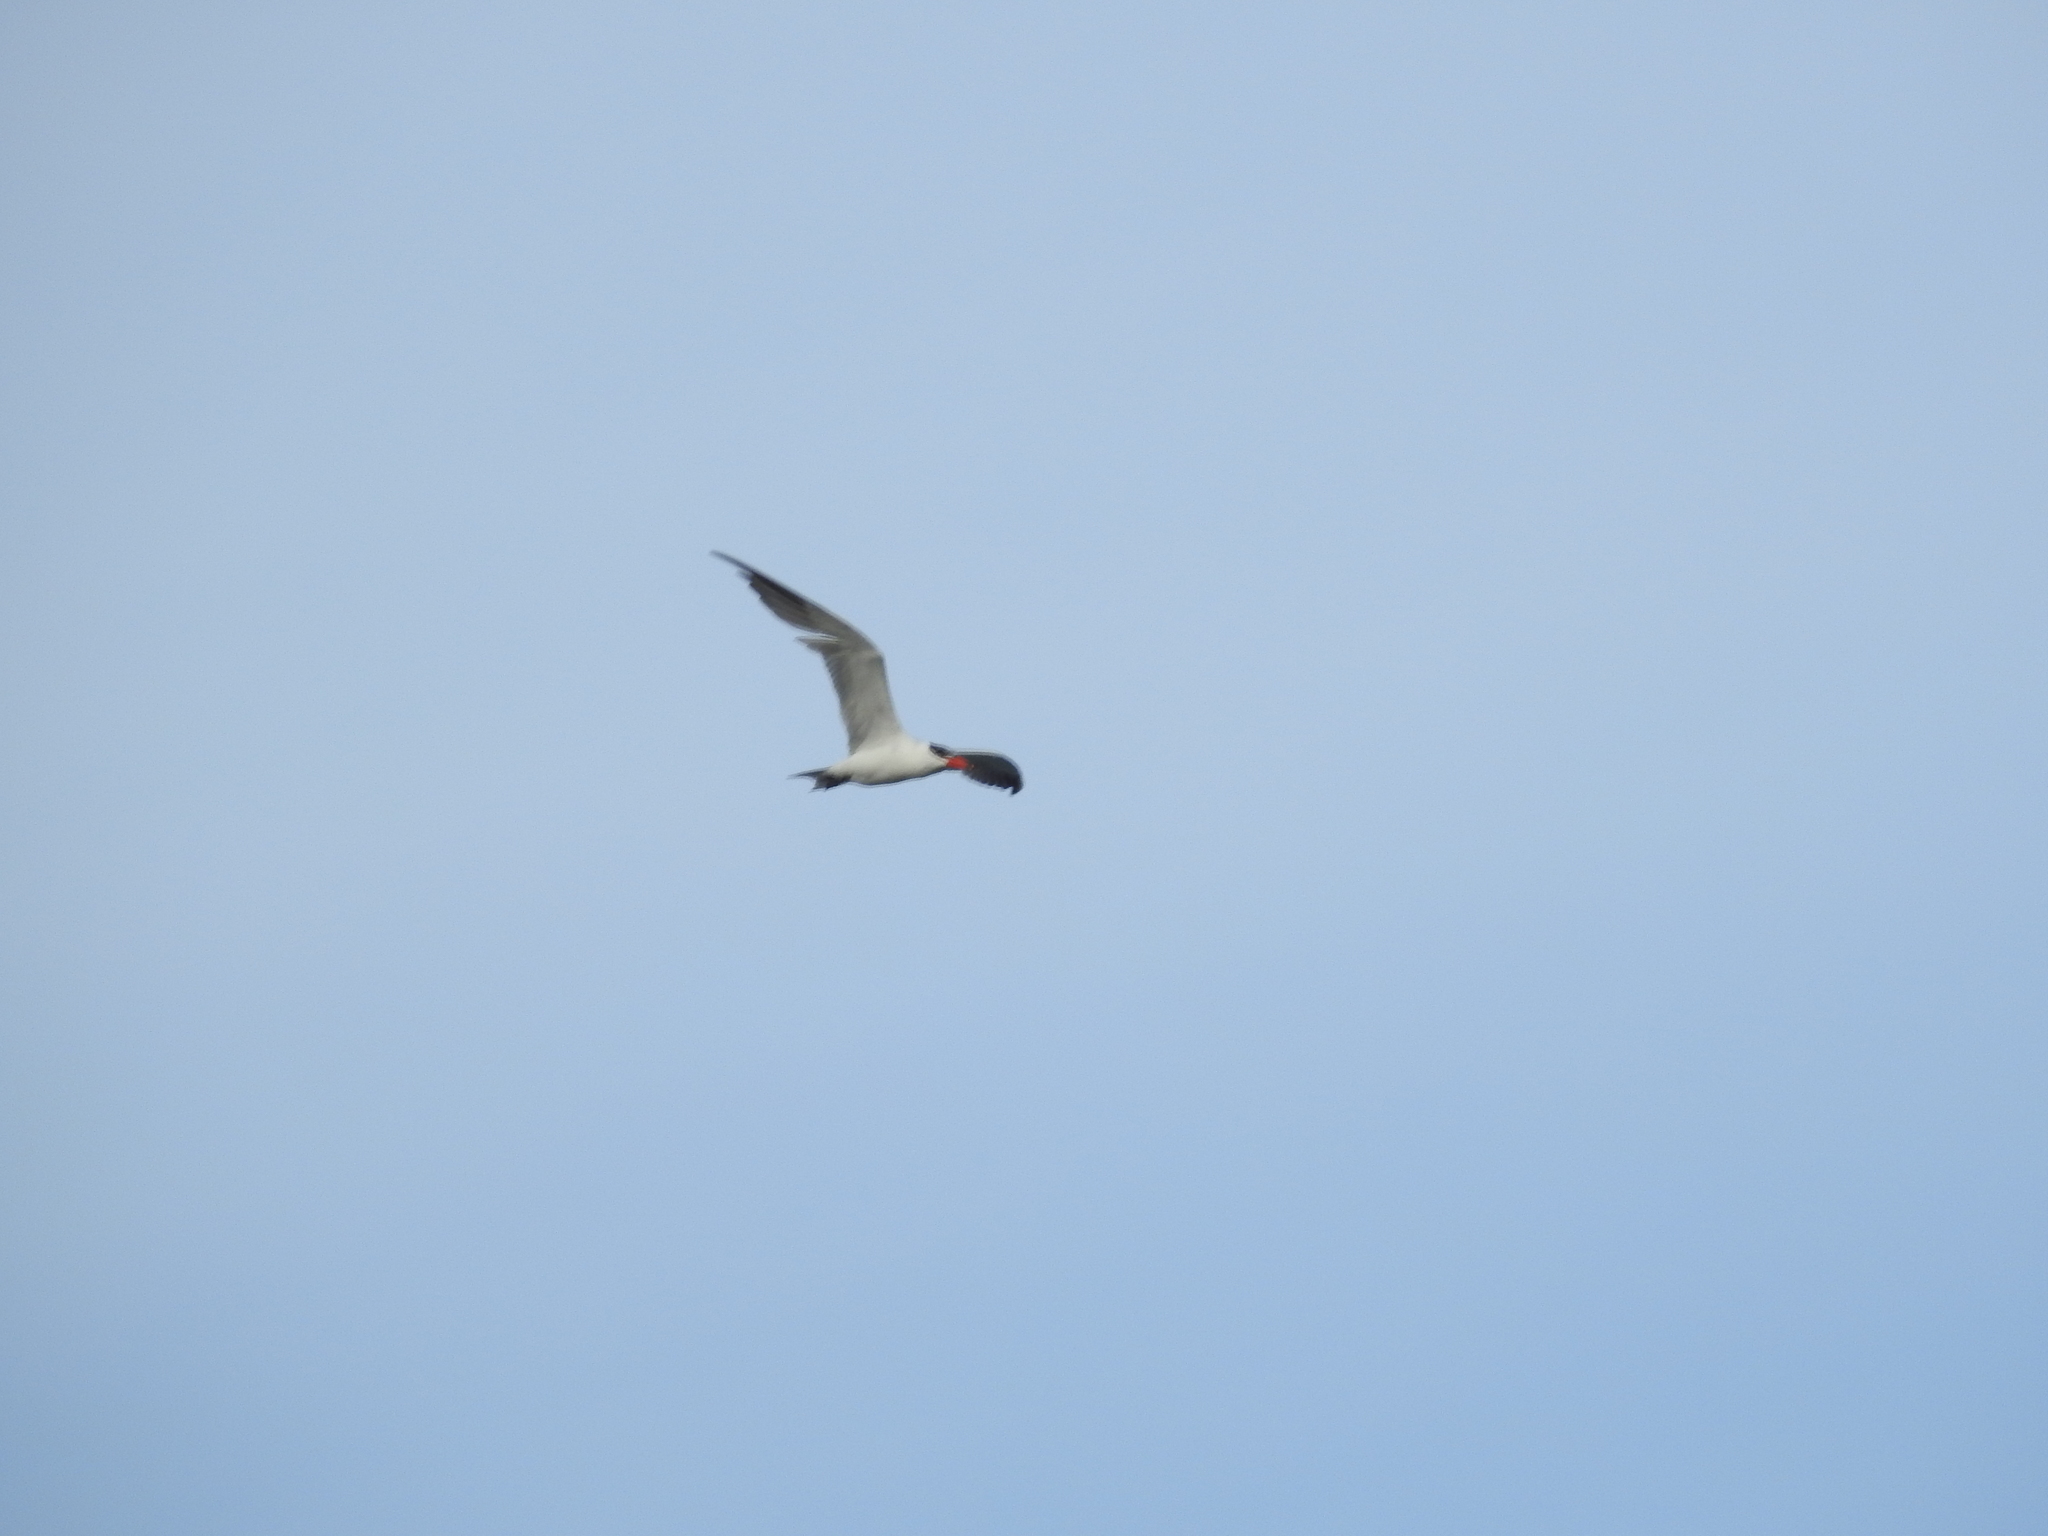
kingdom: Animalia
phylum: Chordata
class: Aves
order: Charadriiformes
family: Laridae
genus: Hydroprogne
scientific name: Hydroprogne caspia
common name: Caspian tern
